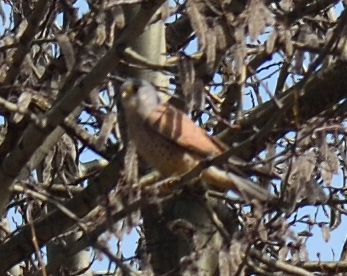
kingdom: Animalia
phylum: Chordata
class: Aves
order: Falconiformes
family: Falconidae
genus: Falco
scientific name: Falco tinnunculus
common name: Common kestrel
